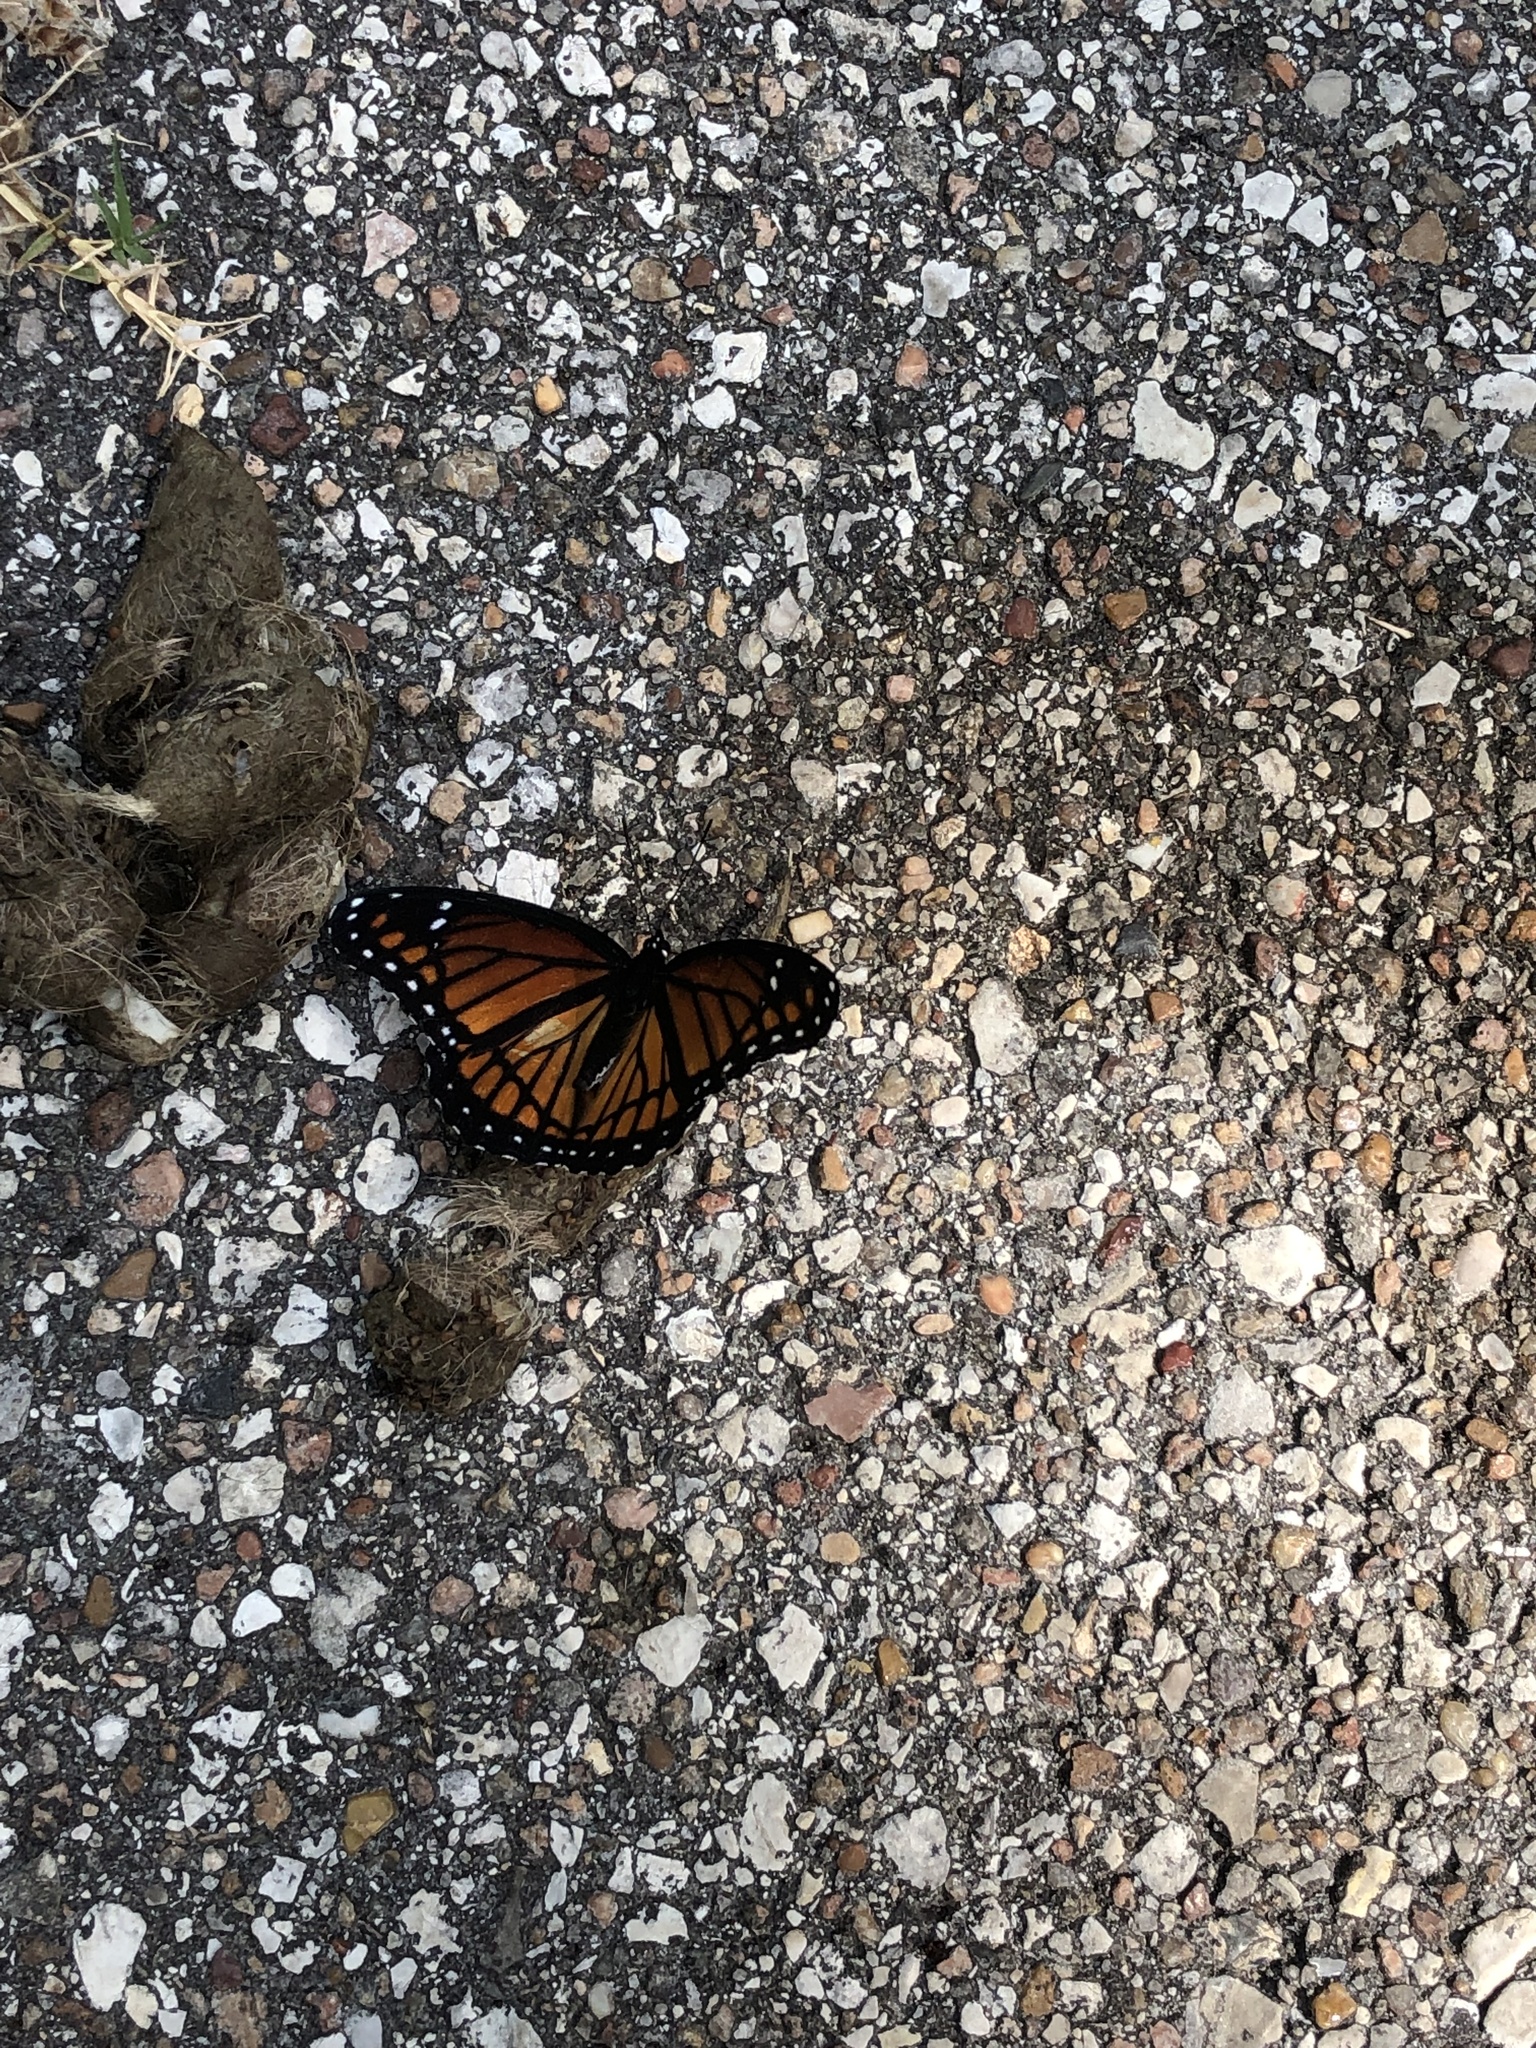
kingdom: Animalia
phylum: Arthropoda
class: Insecta
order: Lepidoptera
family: Nymphalidae
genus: Limenitis
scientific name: Limenitis archippus
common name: Viceroy
